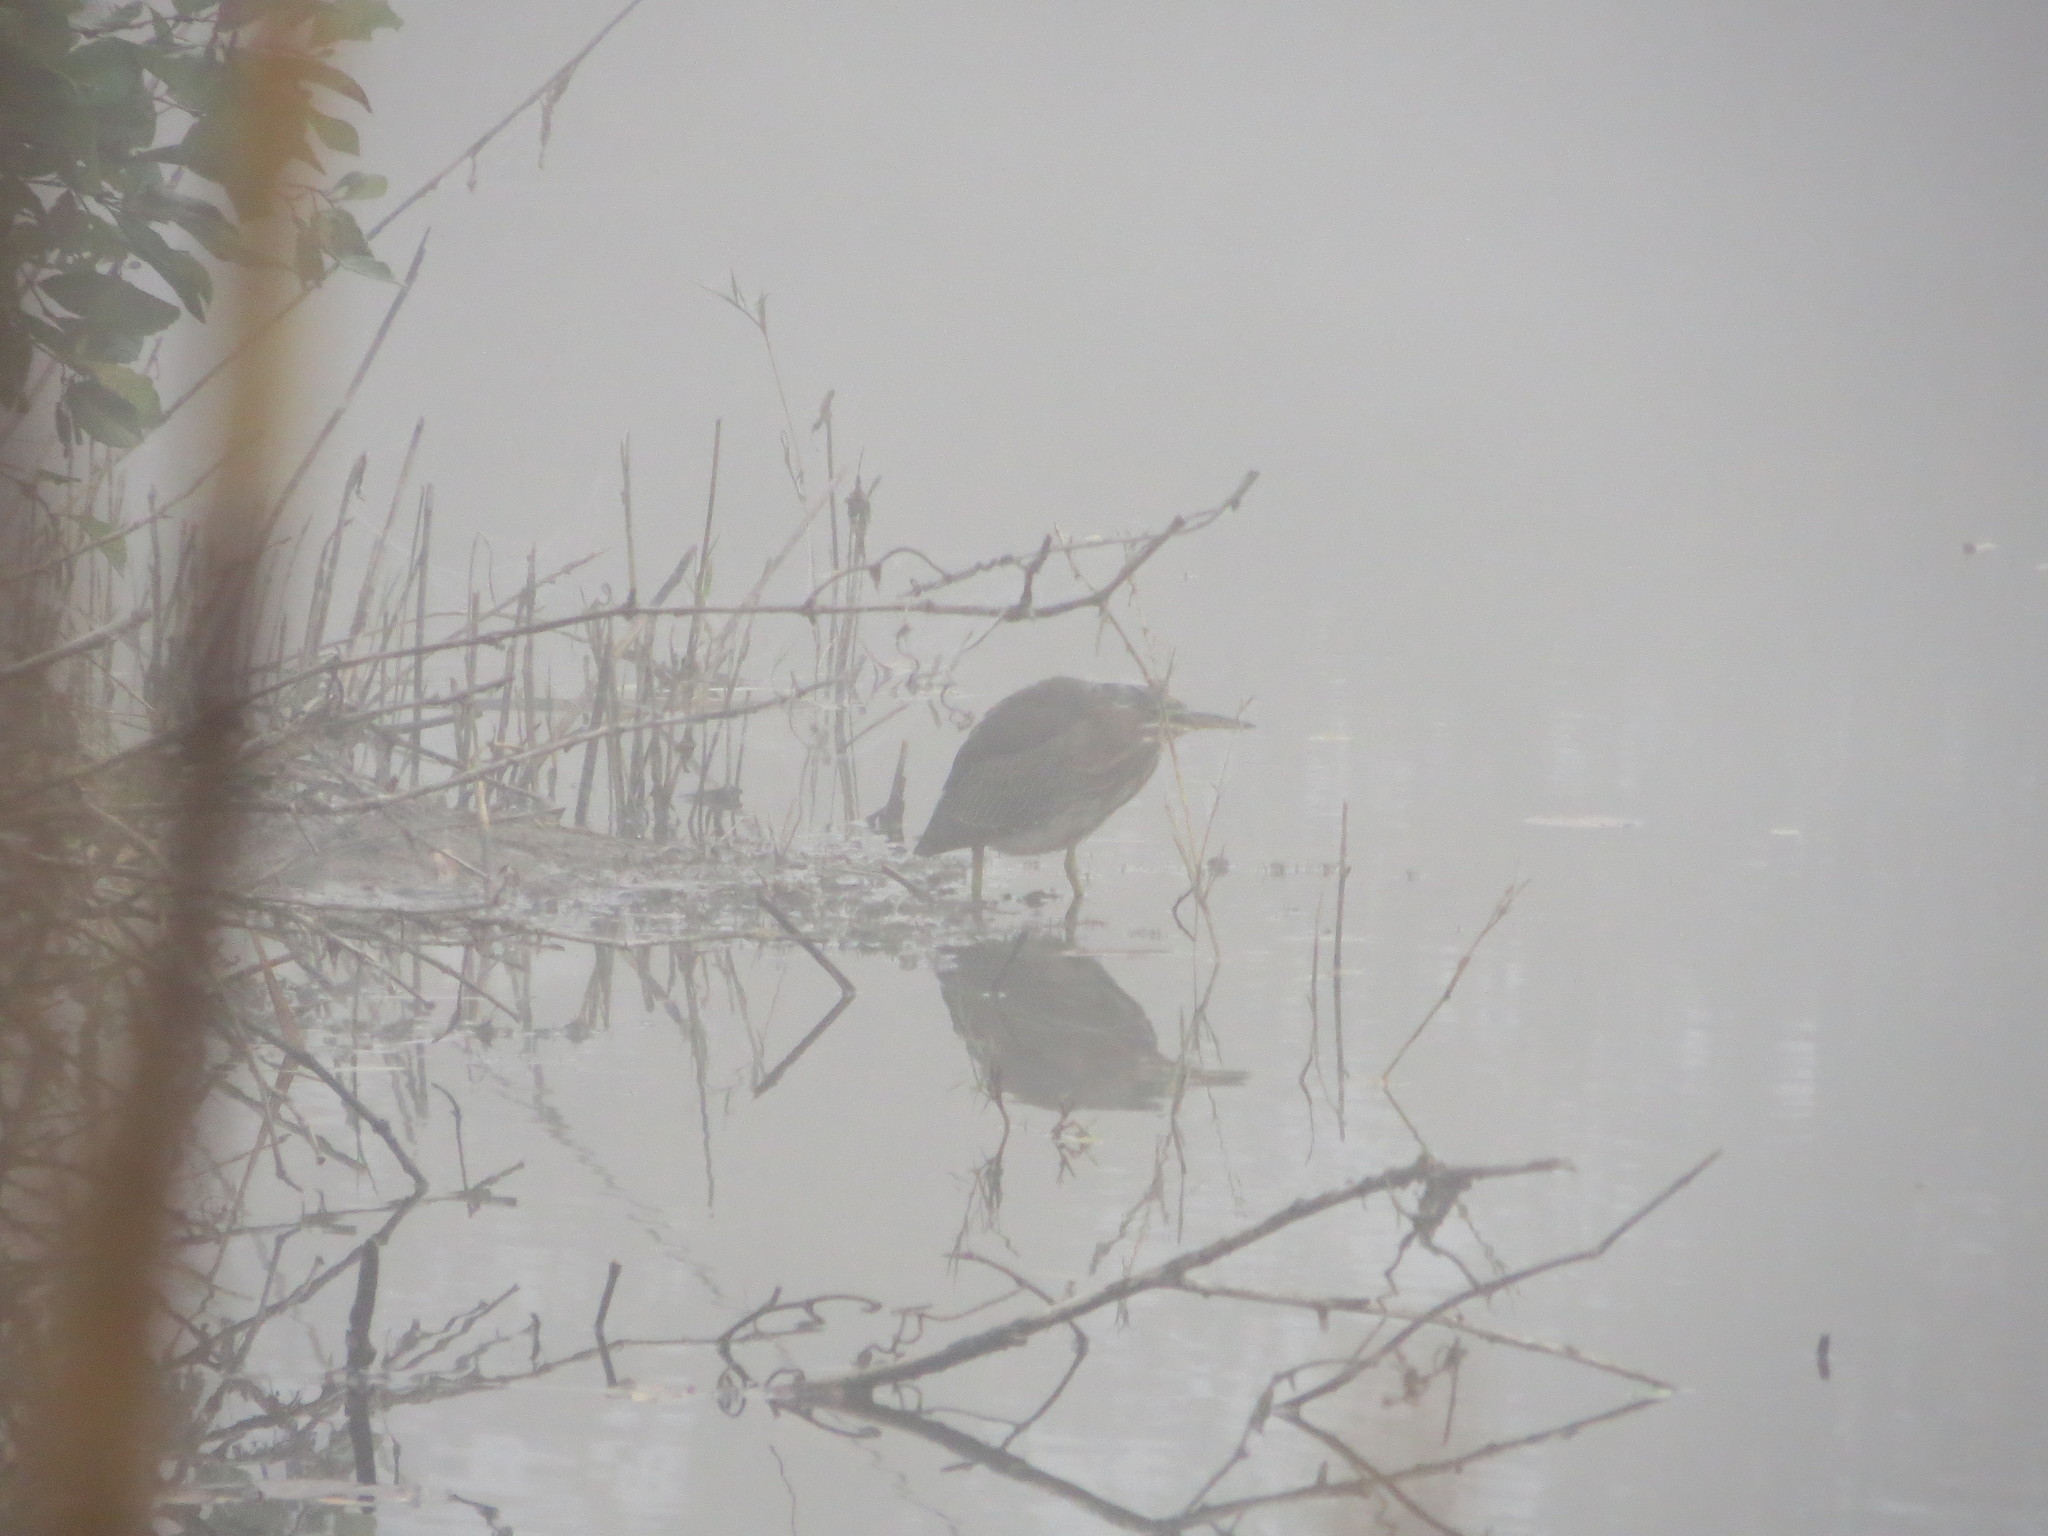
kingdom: Animalia
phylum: Chordata
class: Aves
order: Pelecaniformes
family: Ardeidae
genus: Butorides
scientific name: Butorides virescens
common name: Green heron
